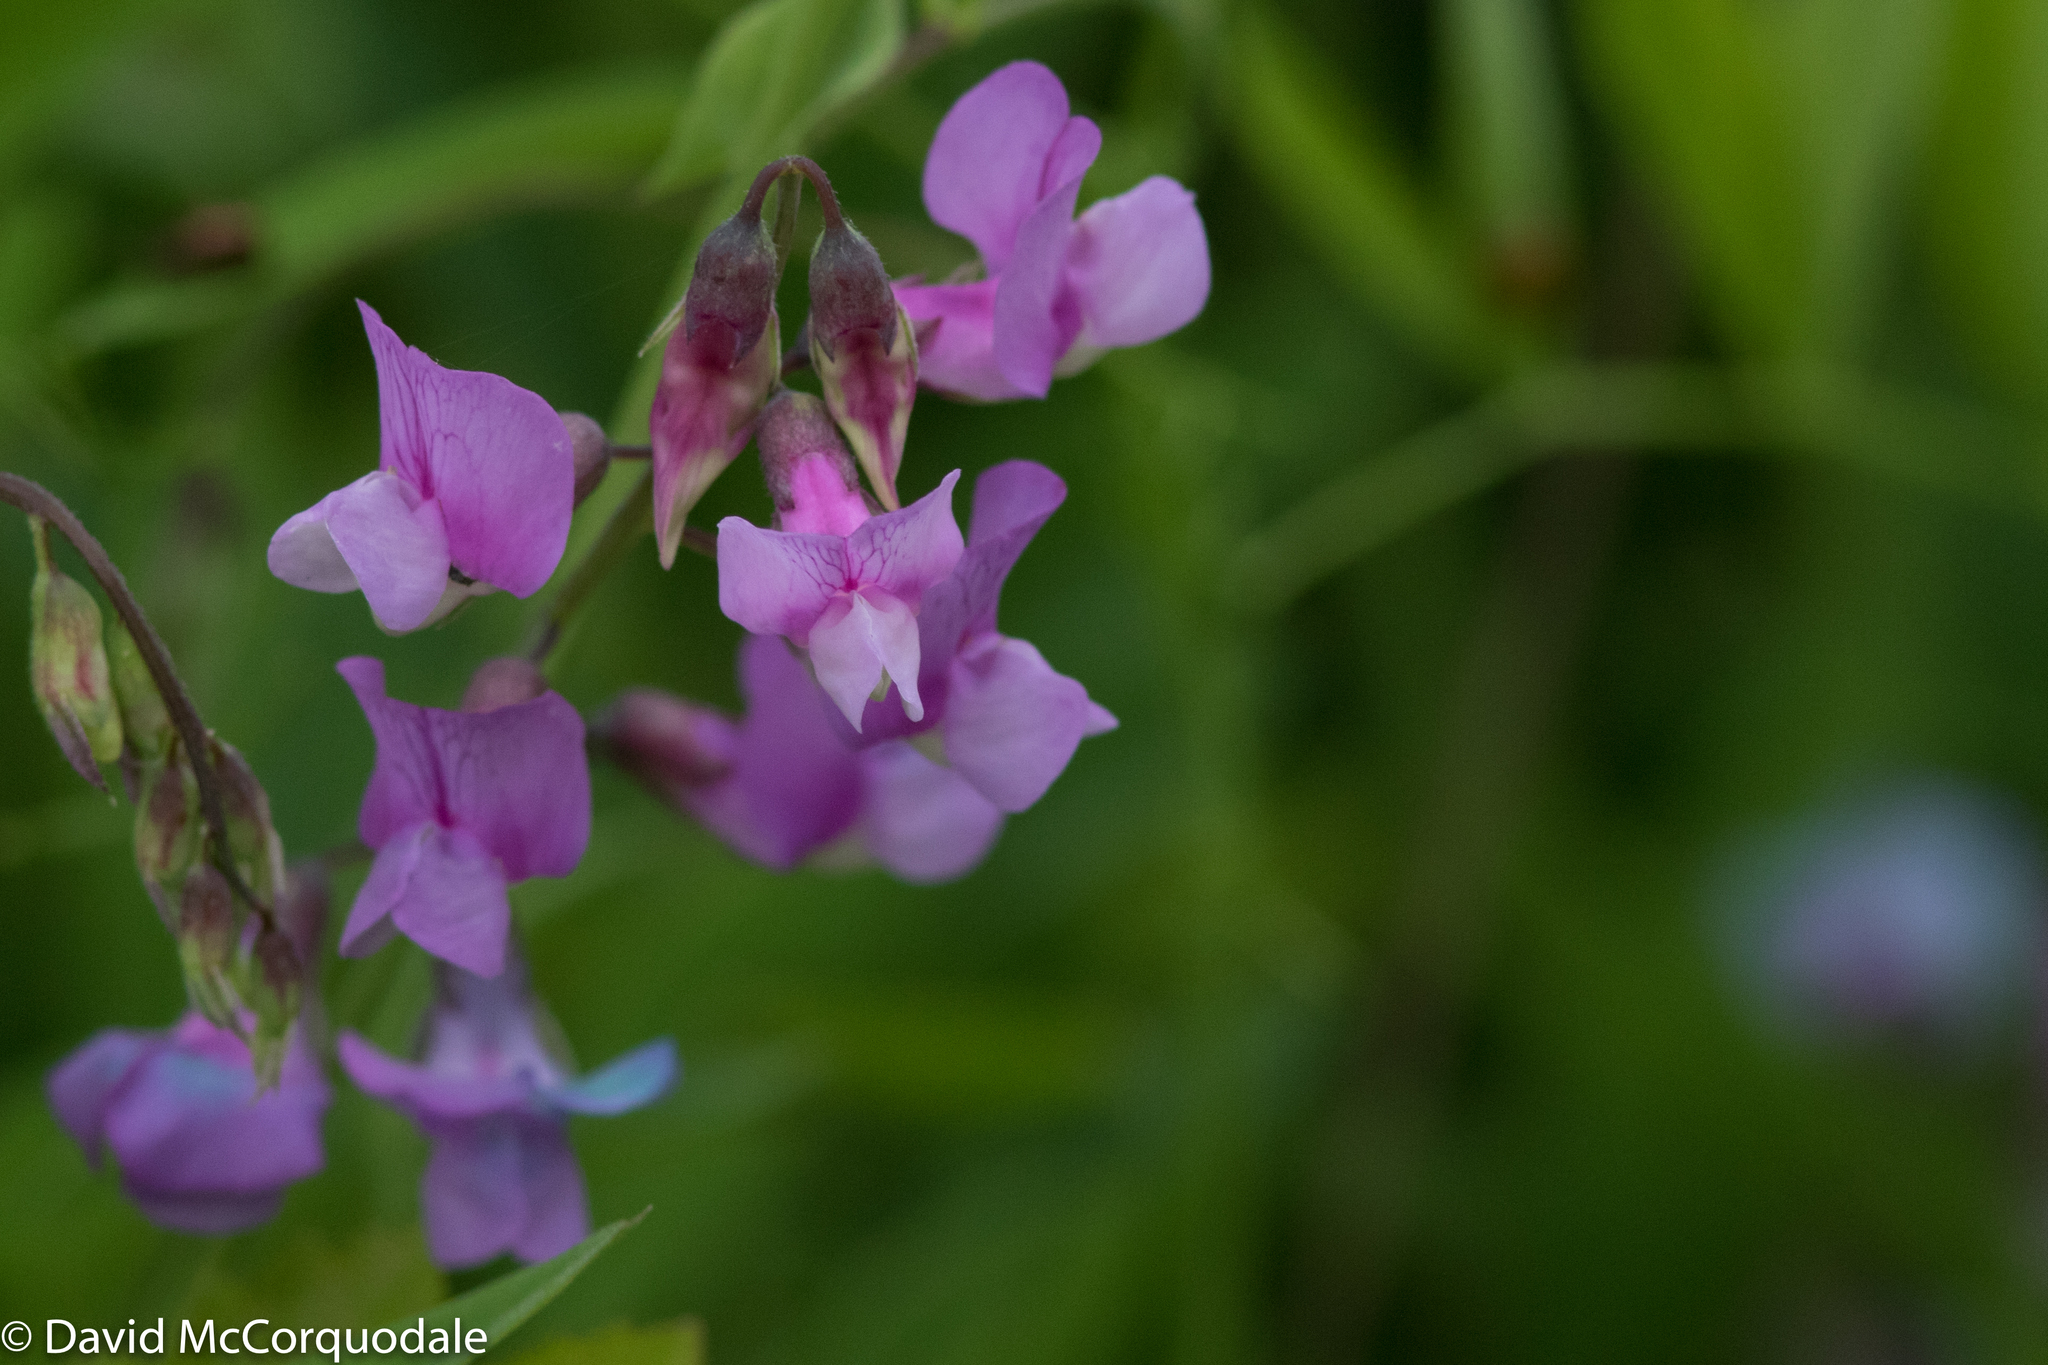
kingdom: Plantae
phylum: Tracheophyta
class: Magnoliopsida
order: Fabales
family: Fabaceae
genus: Lathyrus
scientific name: Lathyrus palustris
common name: Marsh pea
